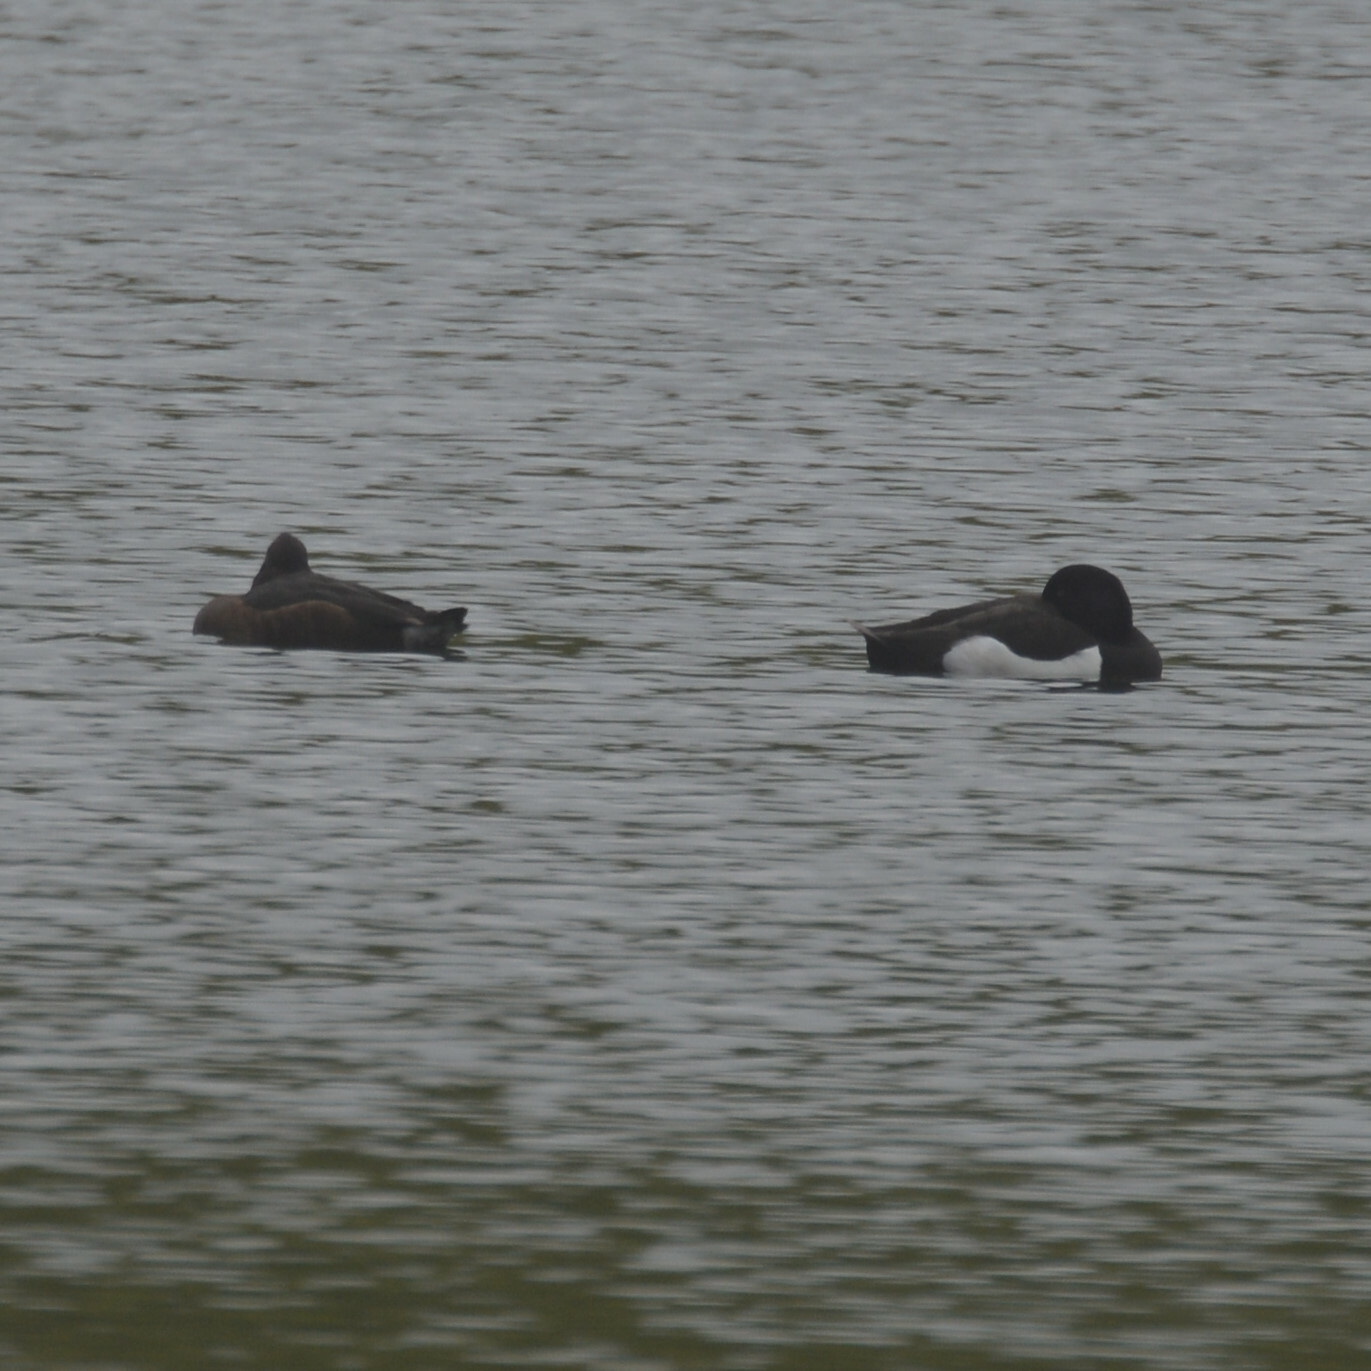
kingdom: Animalia
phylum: Chordata
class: Aves
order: Anseriformes
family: Anatidae
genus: Aythya
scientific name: Aythya fuligula
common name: Tufted duck
